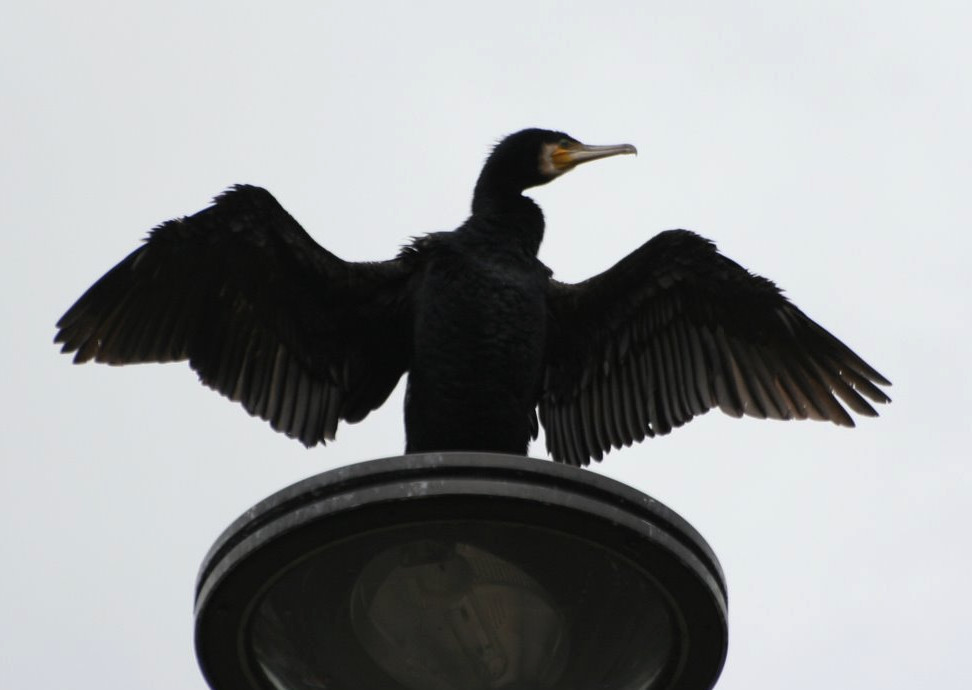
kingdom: Animalia
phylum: Chordata
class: Aves
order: Suliformes
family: Phalacrocoracidae
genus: Phalacrocorax
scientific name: Phalacrocorax carbo
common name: Great cormorant
